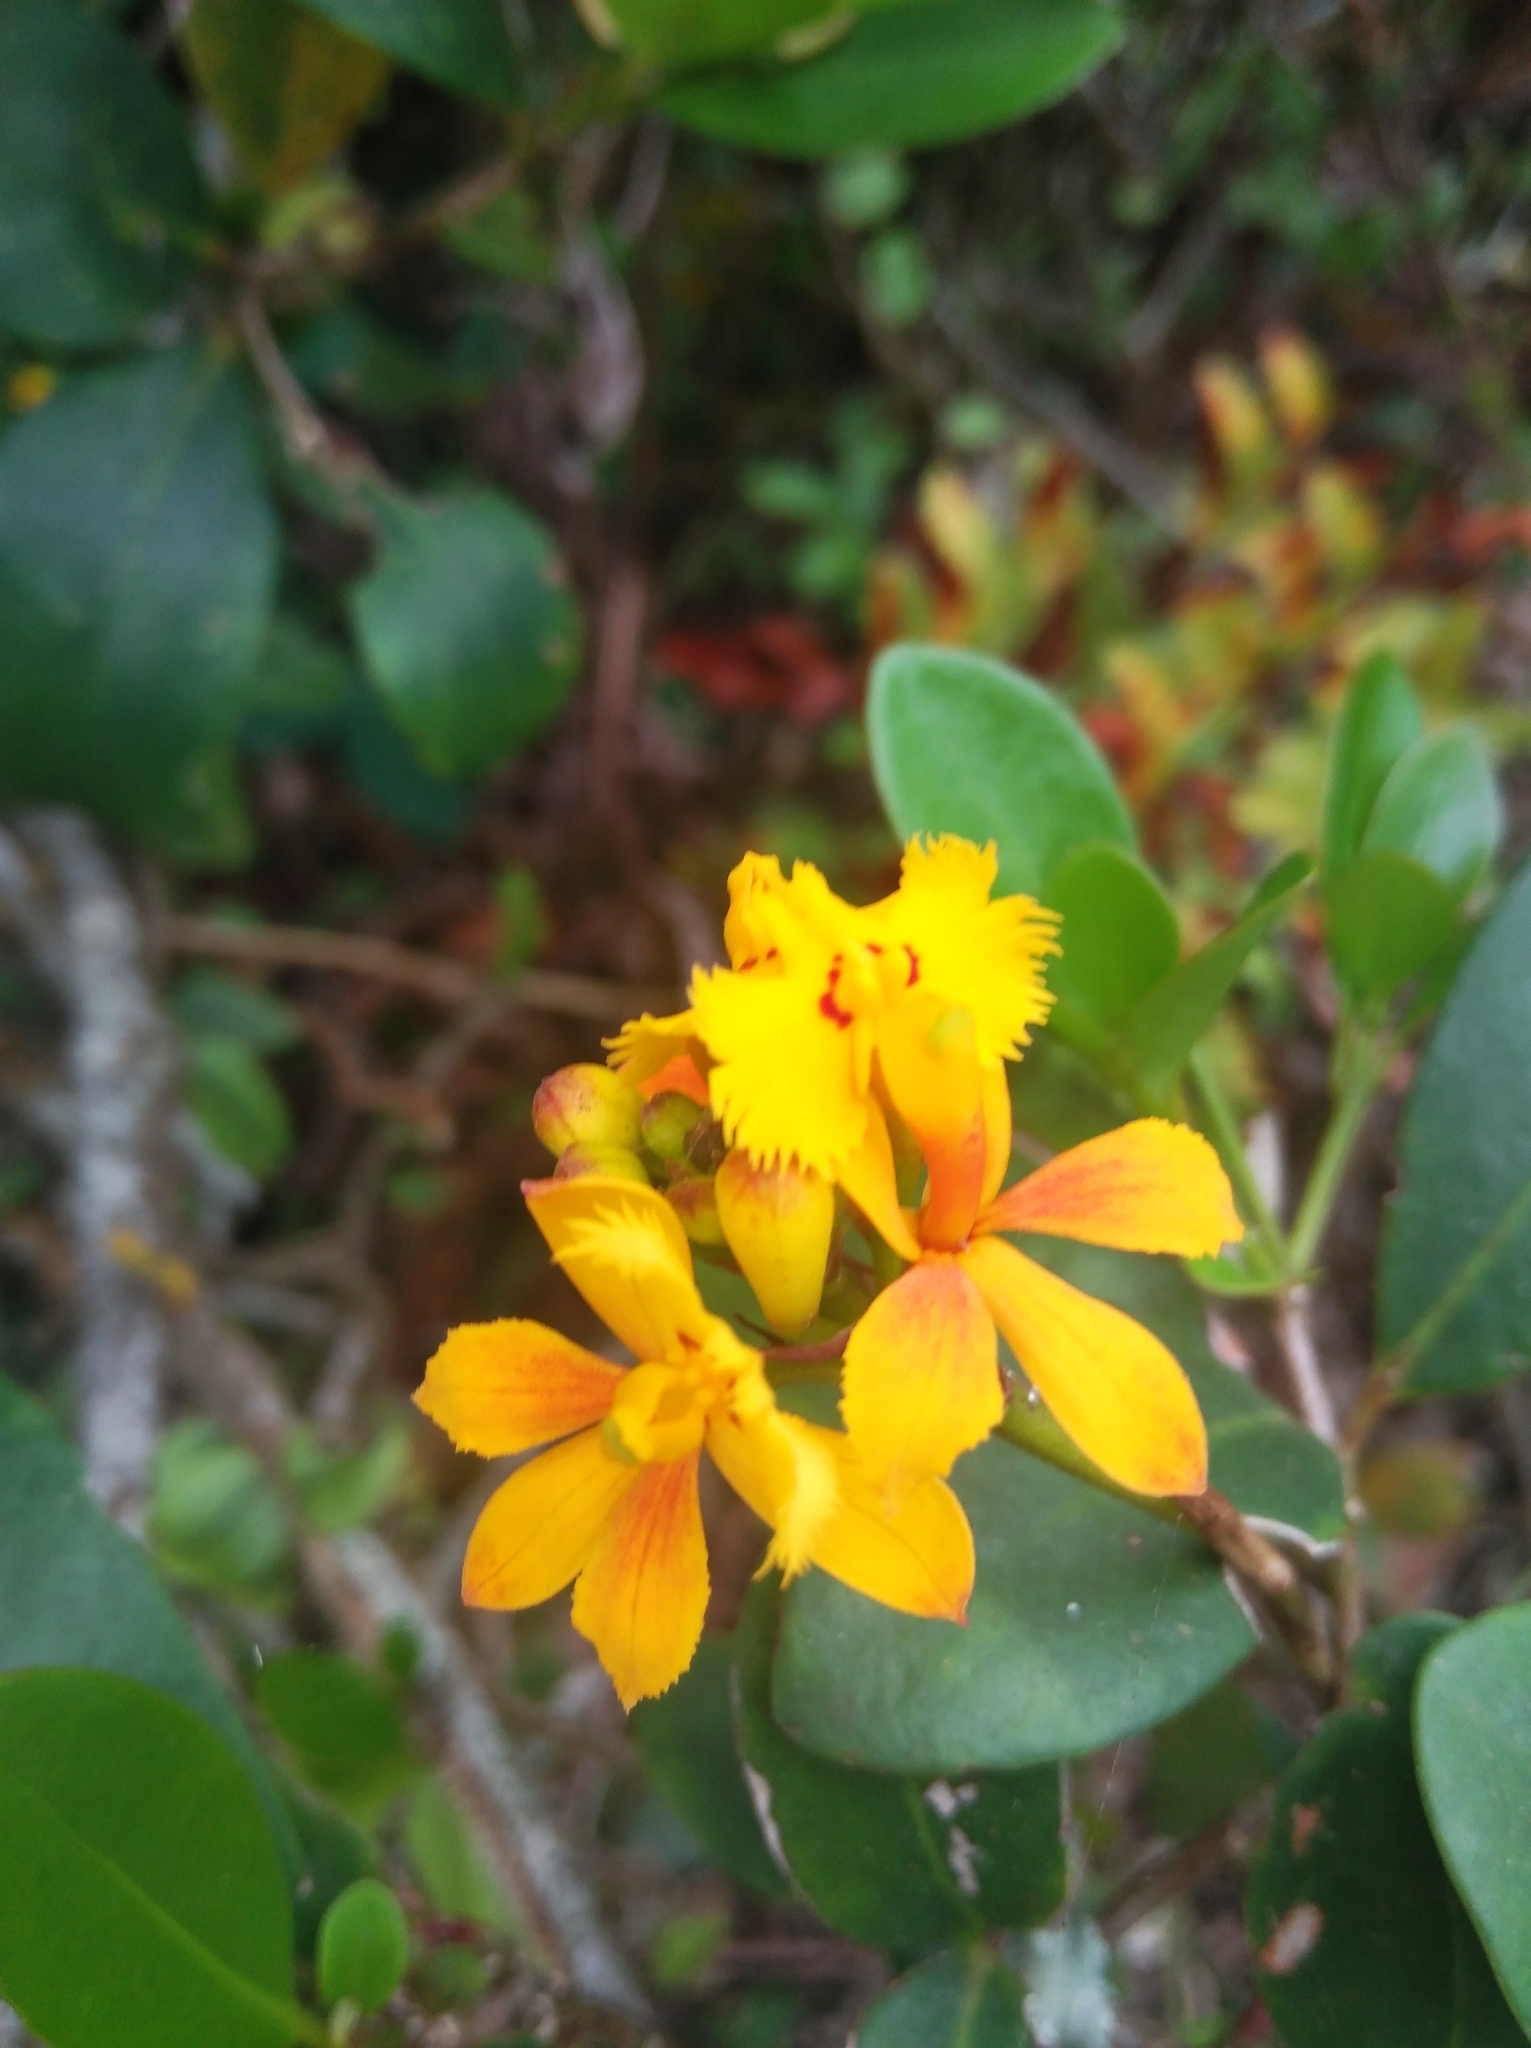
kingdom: Plantae
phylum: Tracheophyta
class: Liliopsida
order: Asparagales
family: Orchidaceae
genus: Epidendrum
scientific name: Epidendrum fulgens
